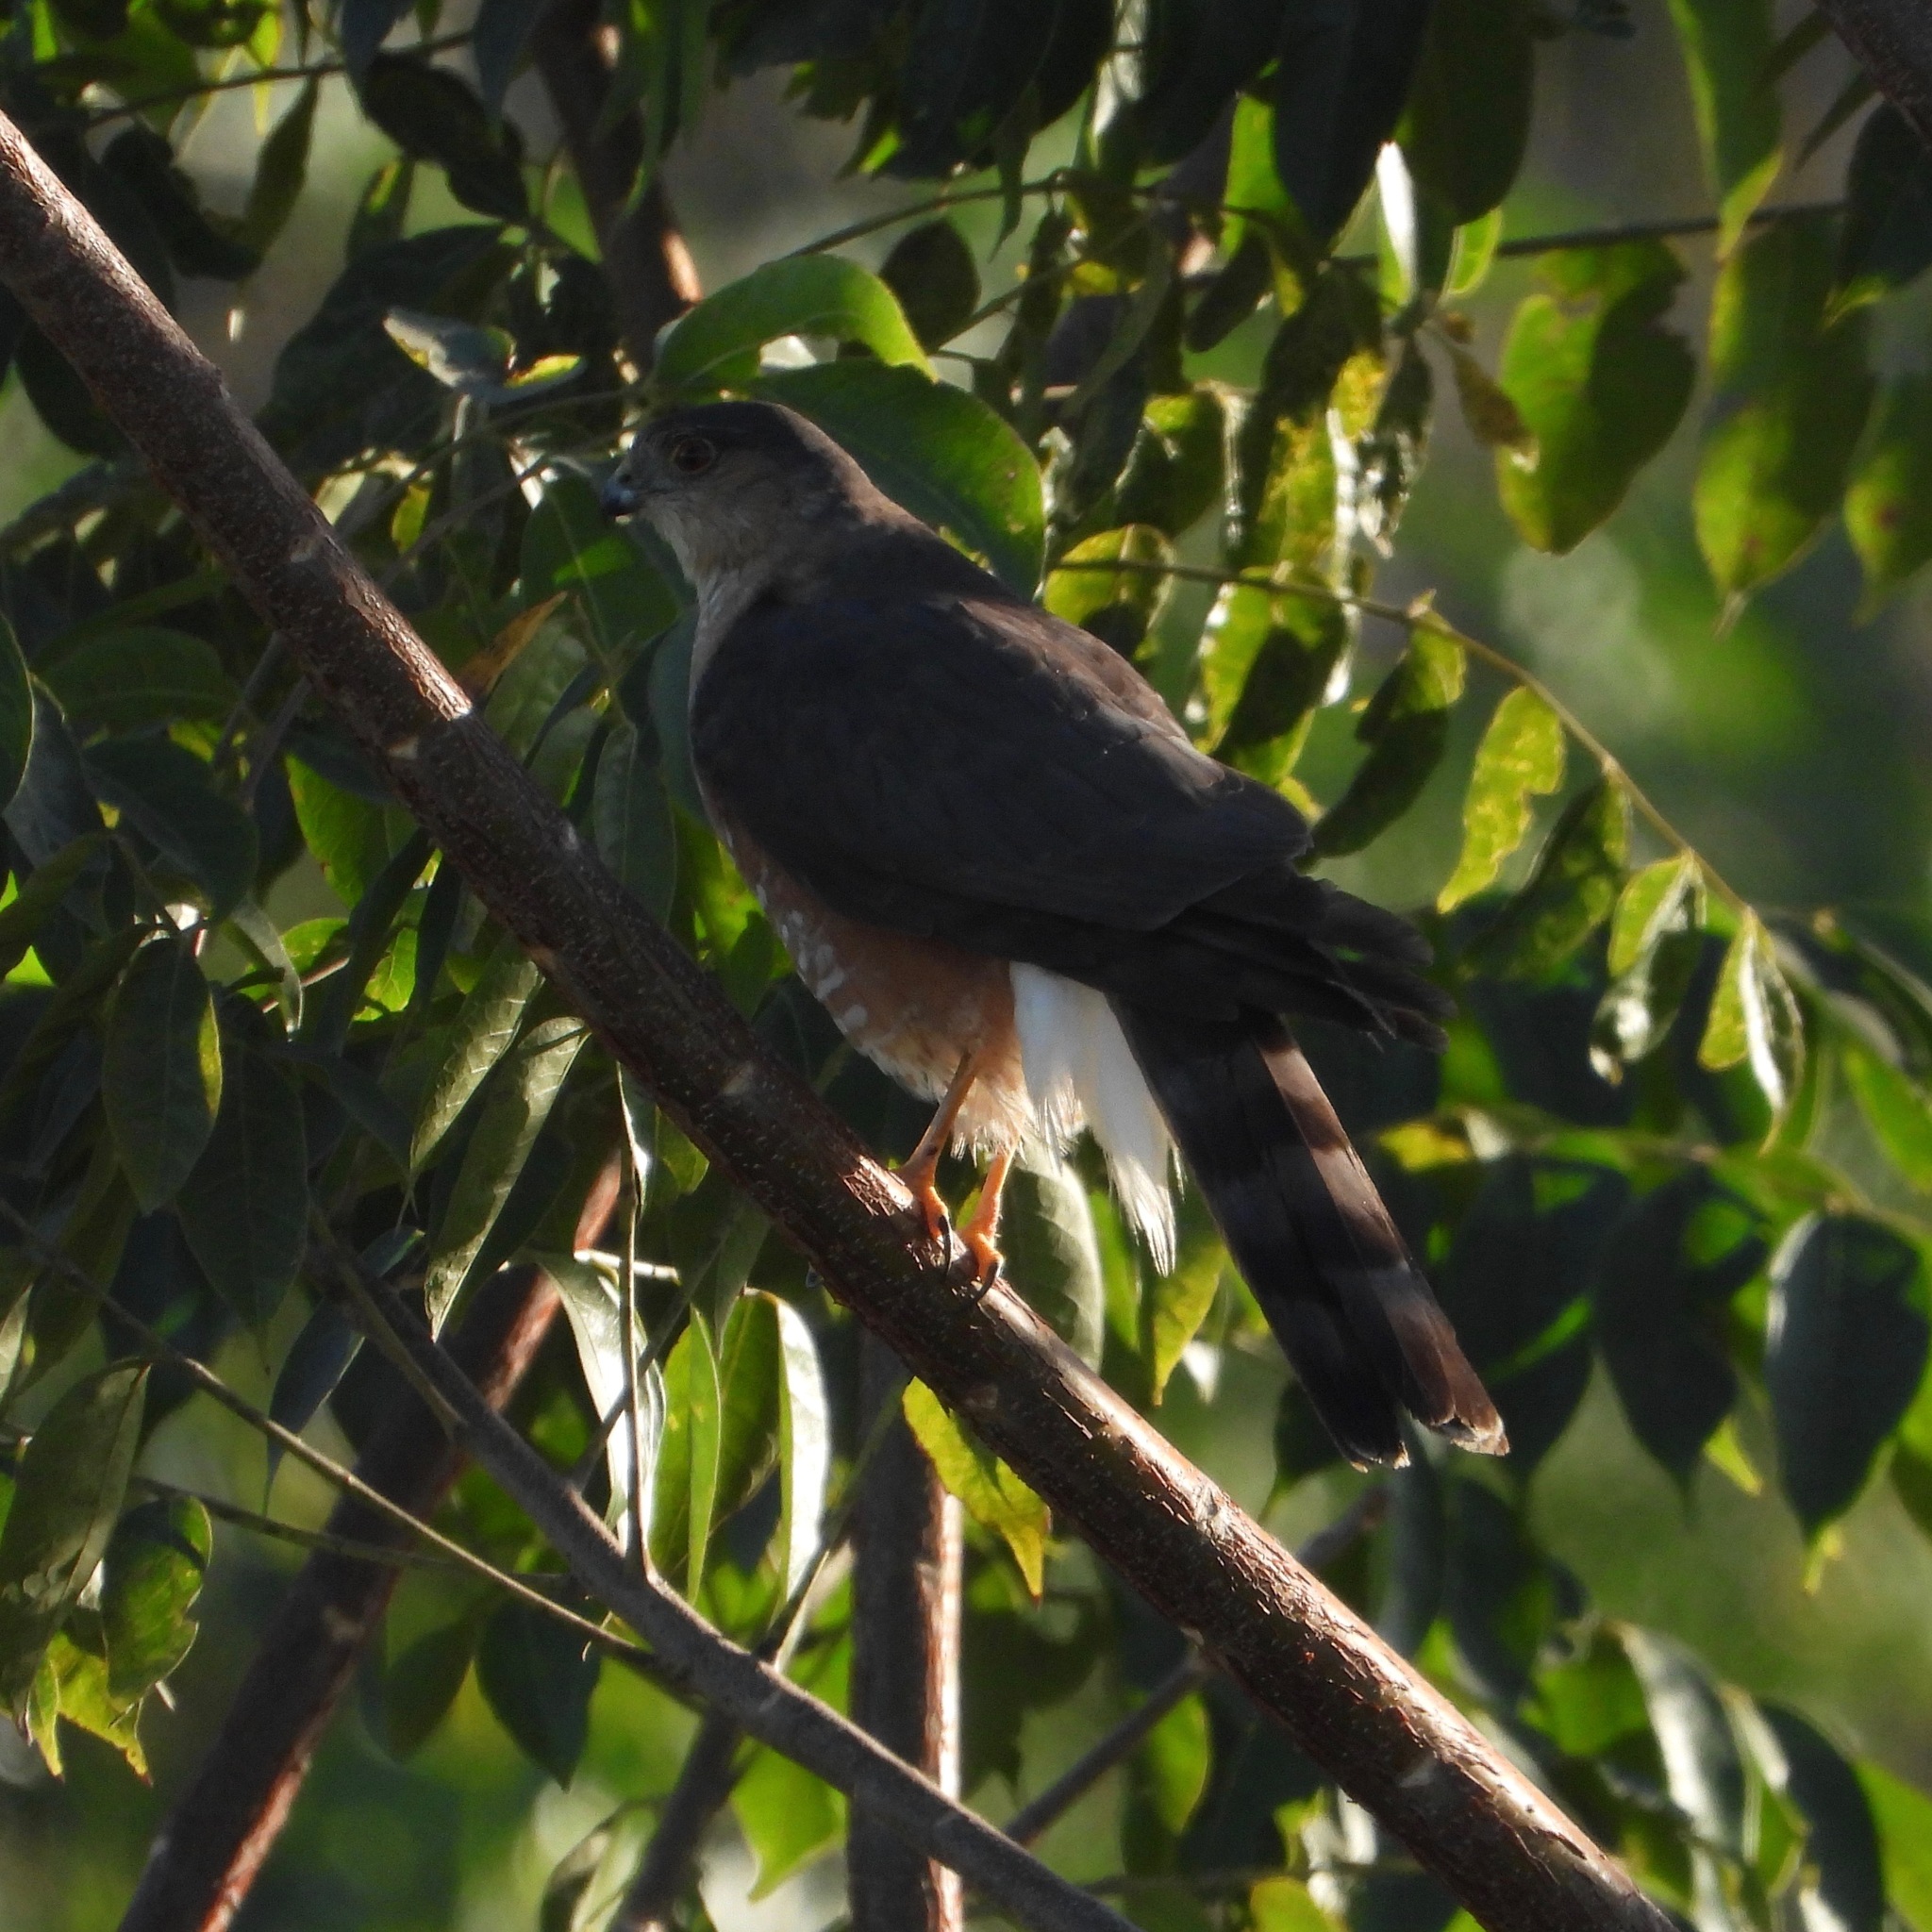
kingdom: Animalia
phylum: Chordata
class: Aves
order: Accipitriformes
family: Accipitridae
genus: Accipiter
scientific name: Accipiter striatus
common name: Sharp-shinned hawk
